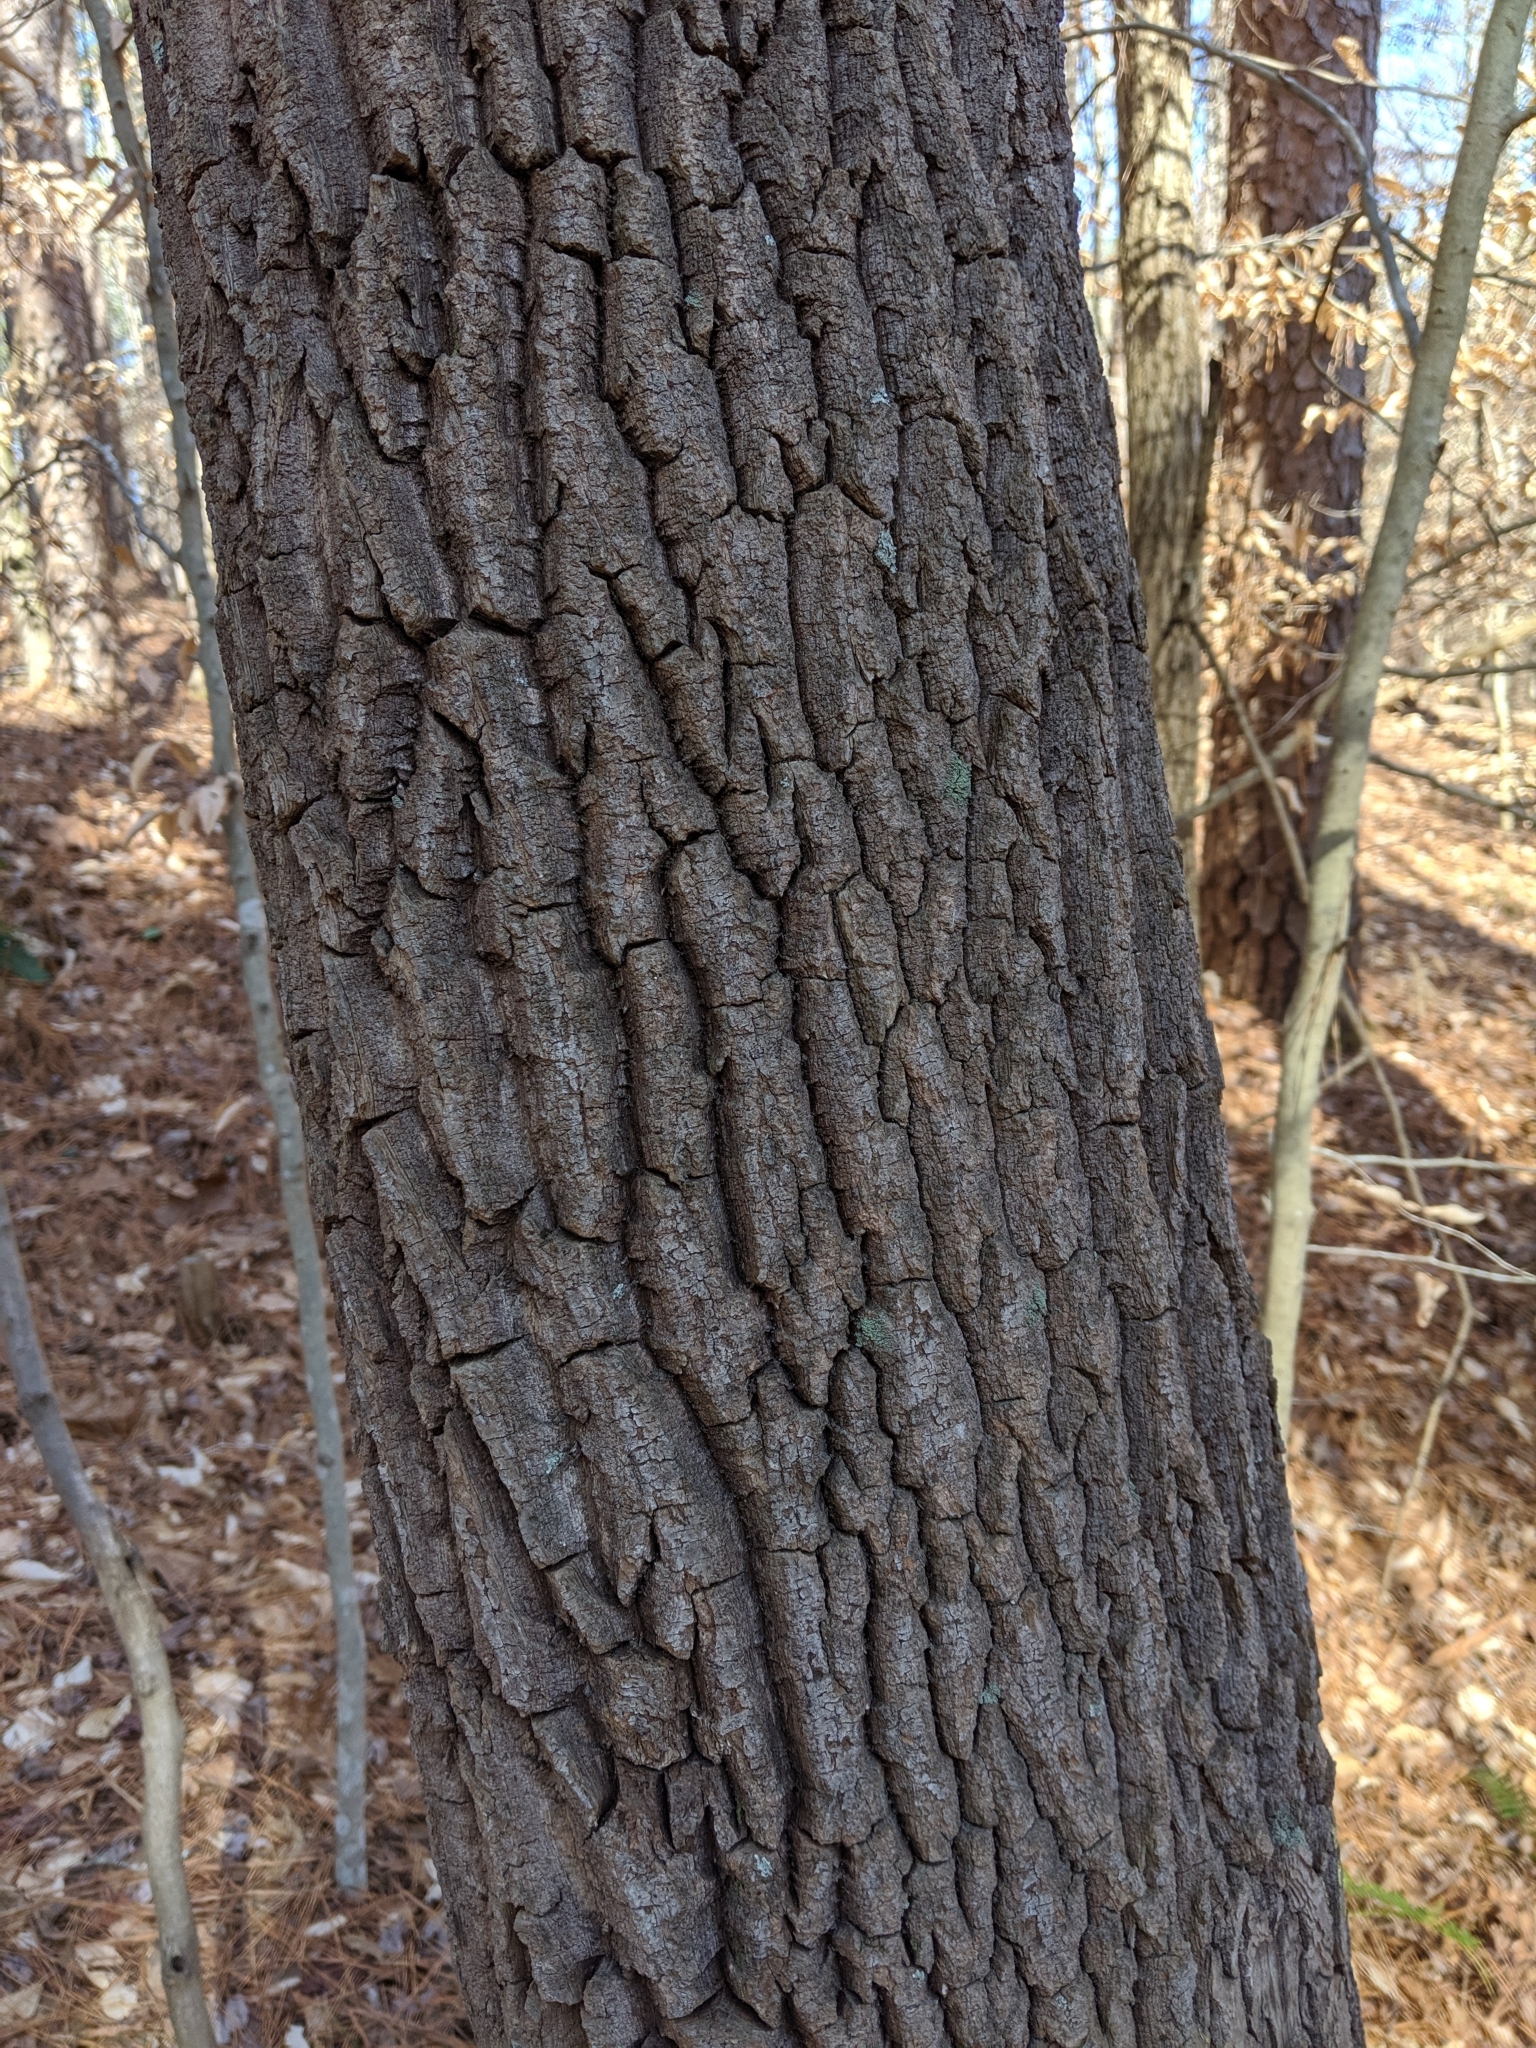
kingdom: Plantae
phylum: Tracheophyta
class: Magnoliopsida
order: Ericales
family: Ericaceae
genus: Oxydendrum
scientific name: Oxydendrum arboreum
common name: Sourwood
